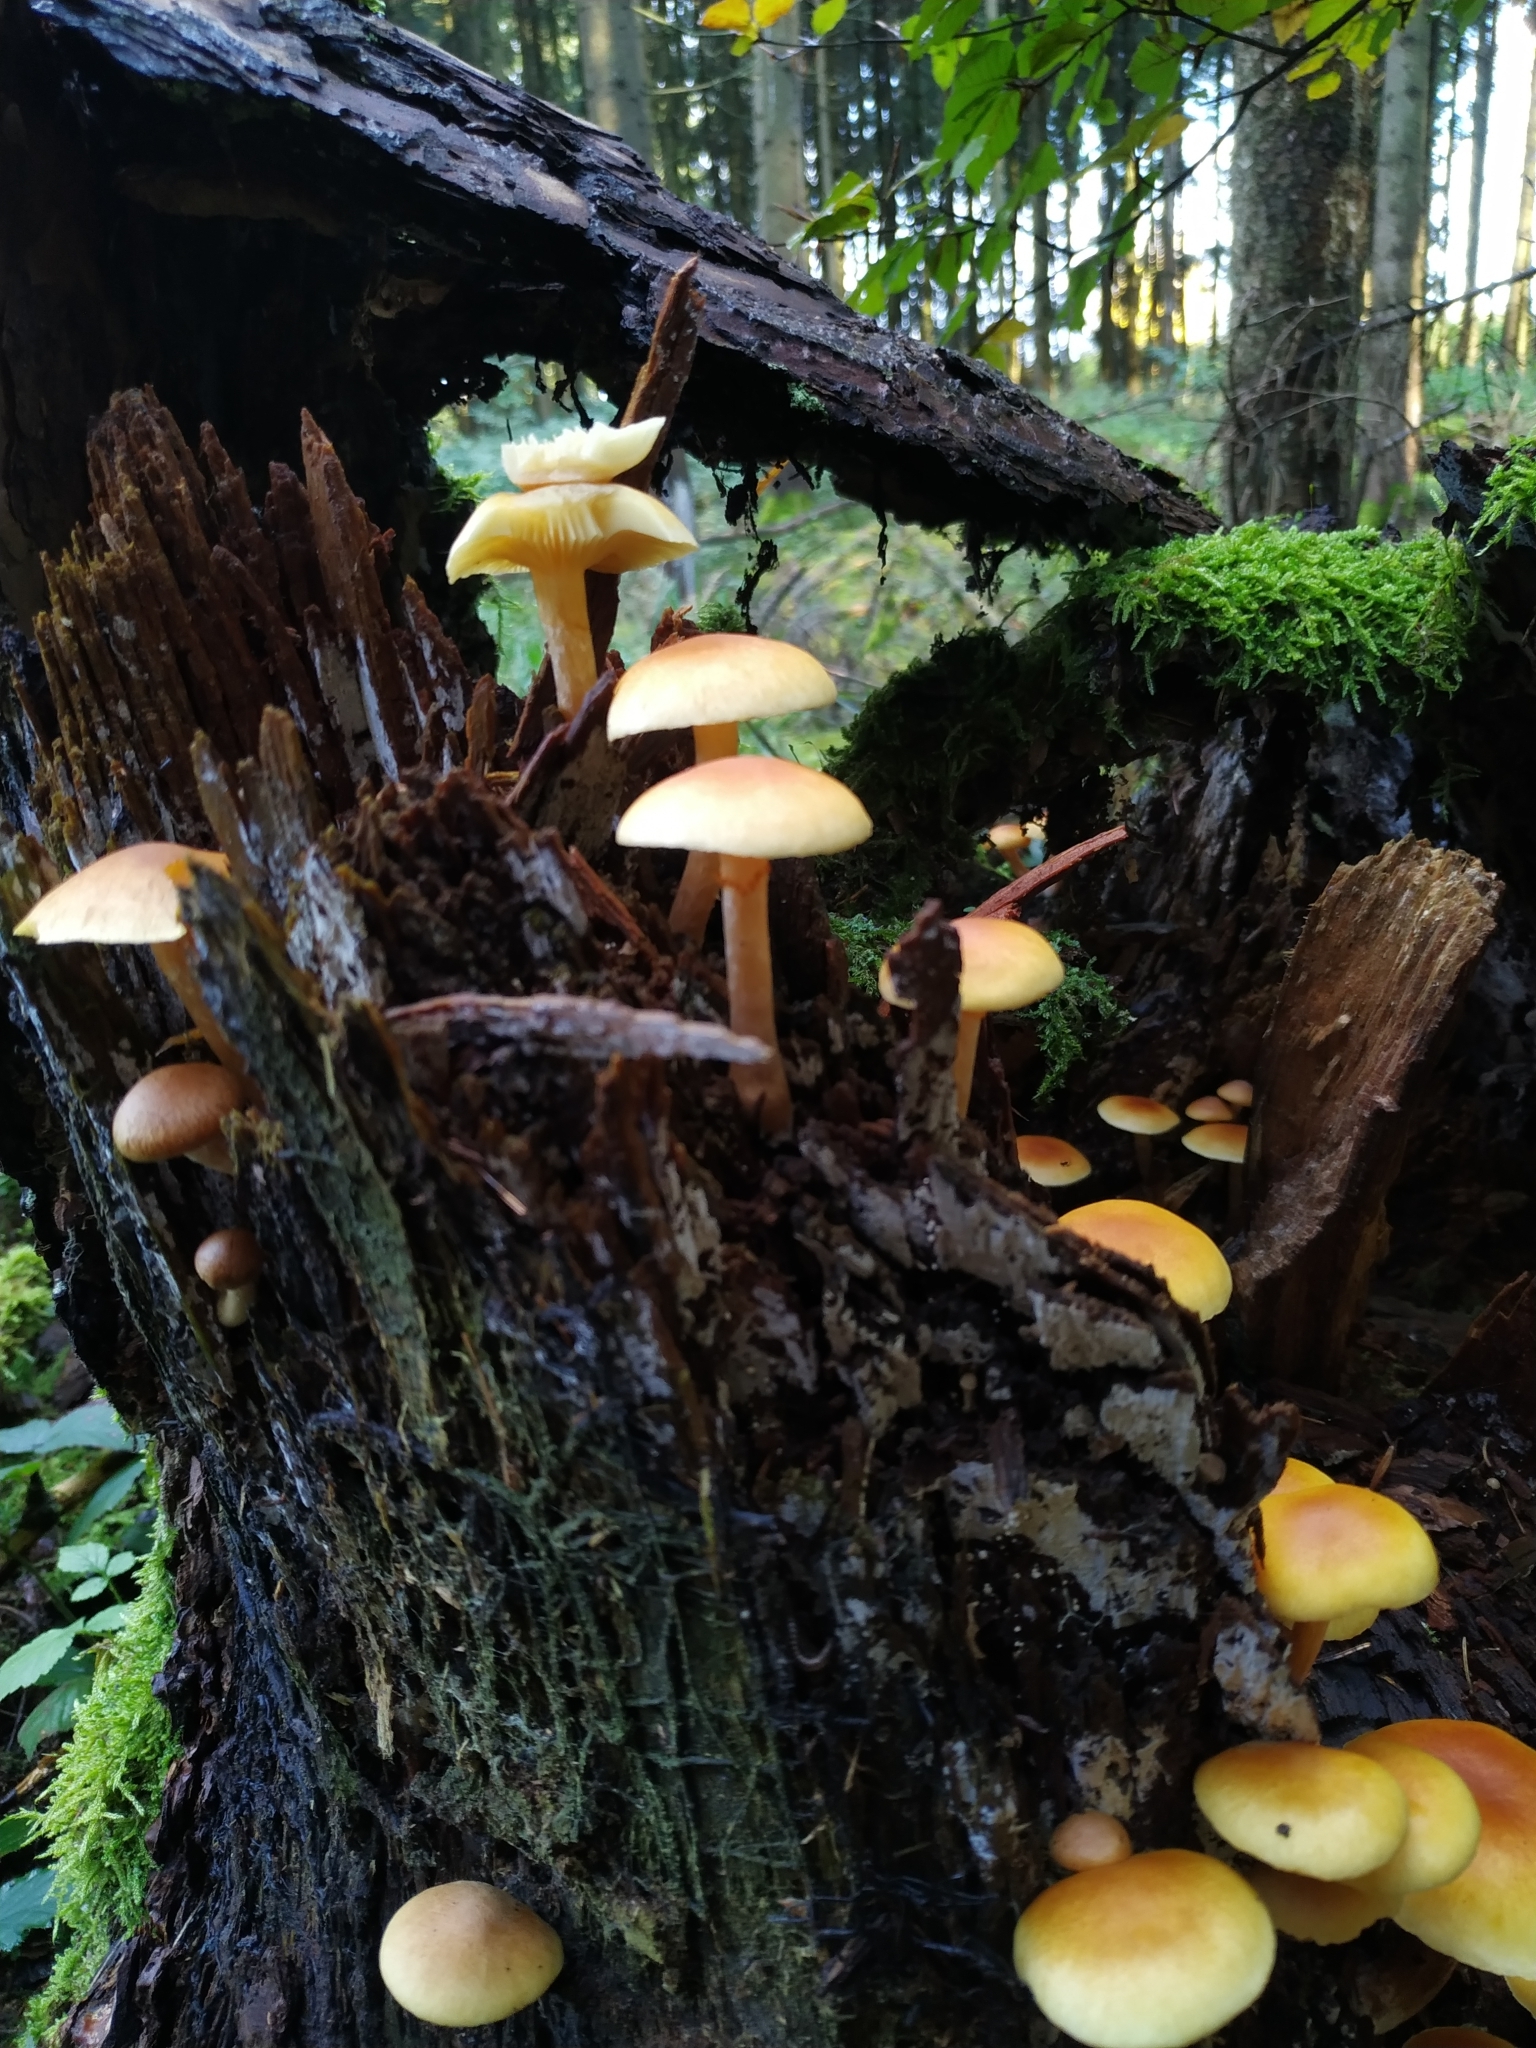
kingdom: Fungi
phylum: Basidiomycota
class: Agaricomycetes
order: Agaricales
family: Strophariaceae
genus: Hypholoma
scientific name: Hypholoma fasciculare
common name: Sulphur tuft
